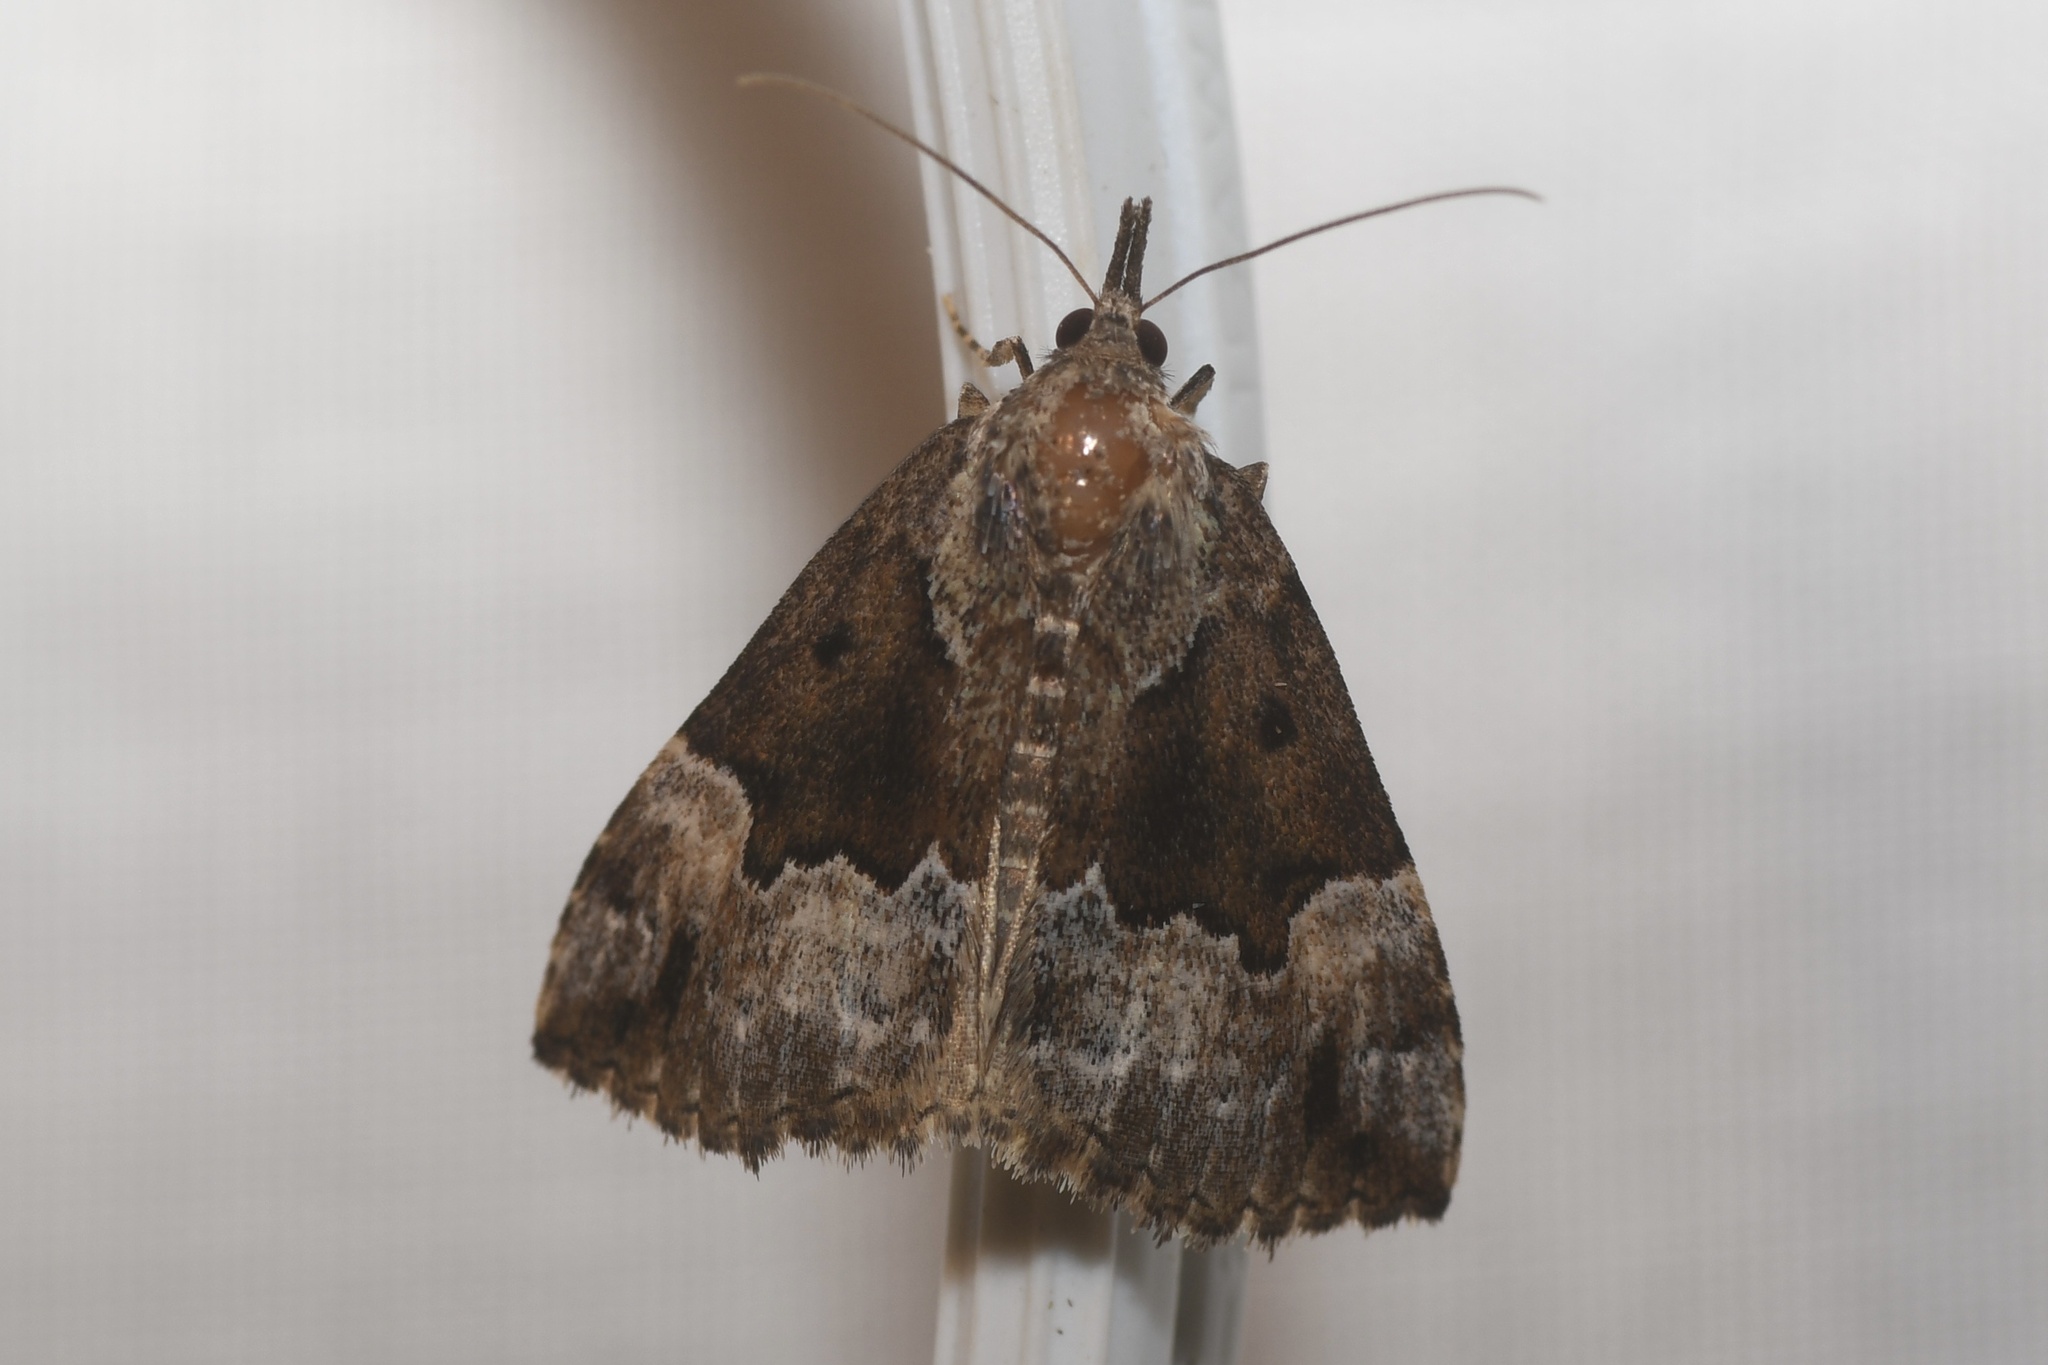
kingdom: Animalia
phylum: Arthropoda
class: Insecta
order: Lepidoptera
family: Erebidae
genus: Hypena
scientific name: Hypena palparia
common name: Mottled bomolocha moth
